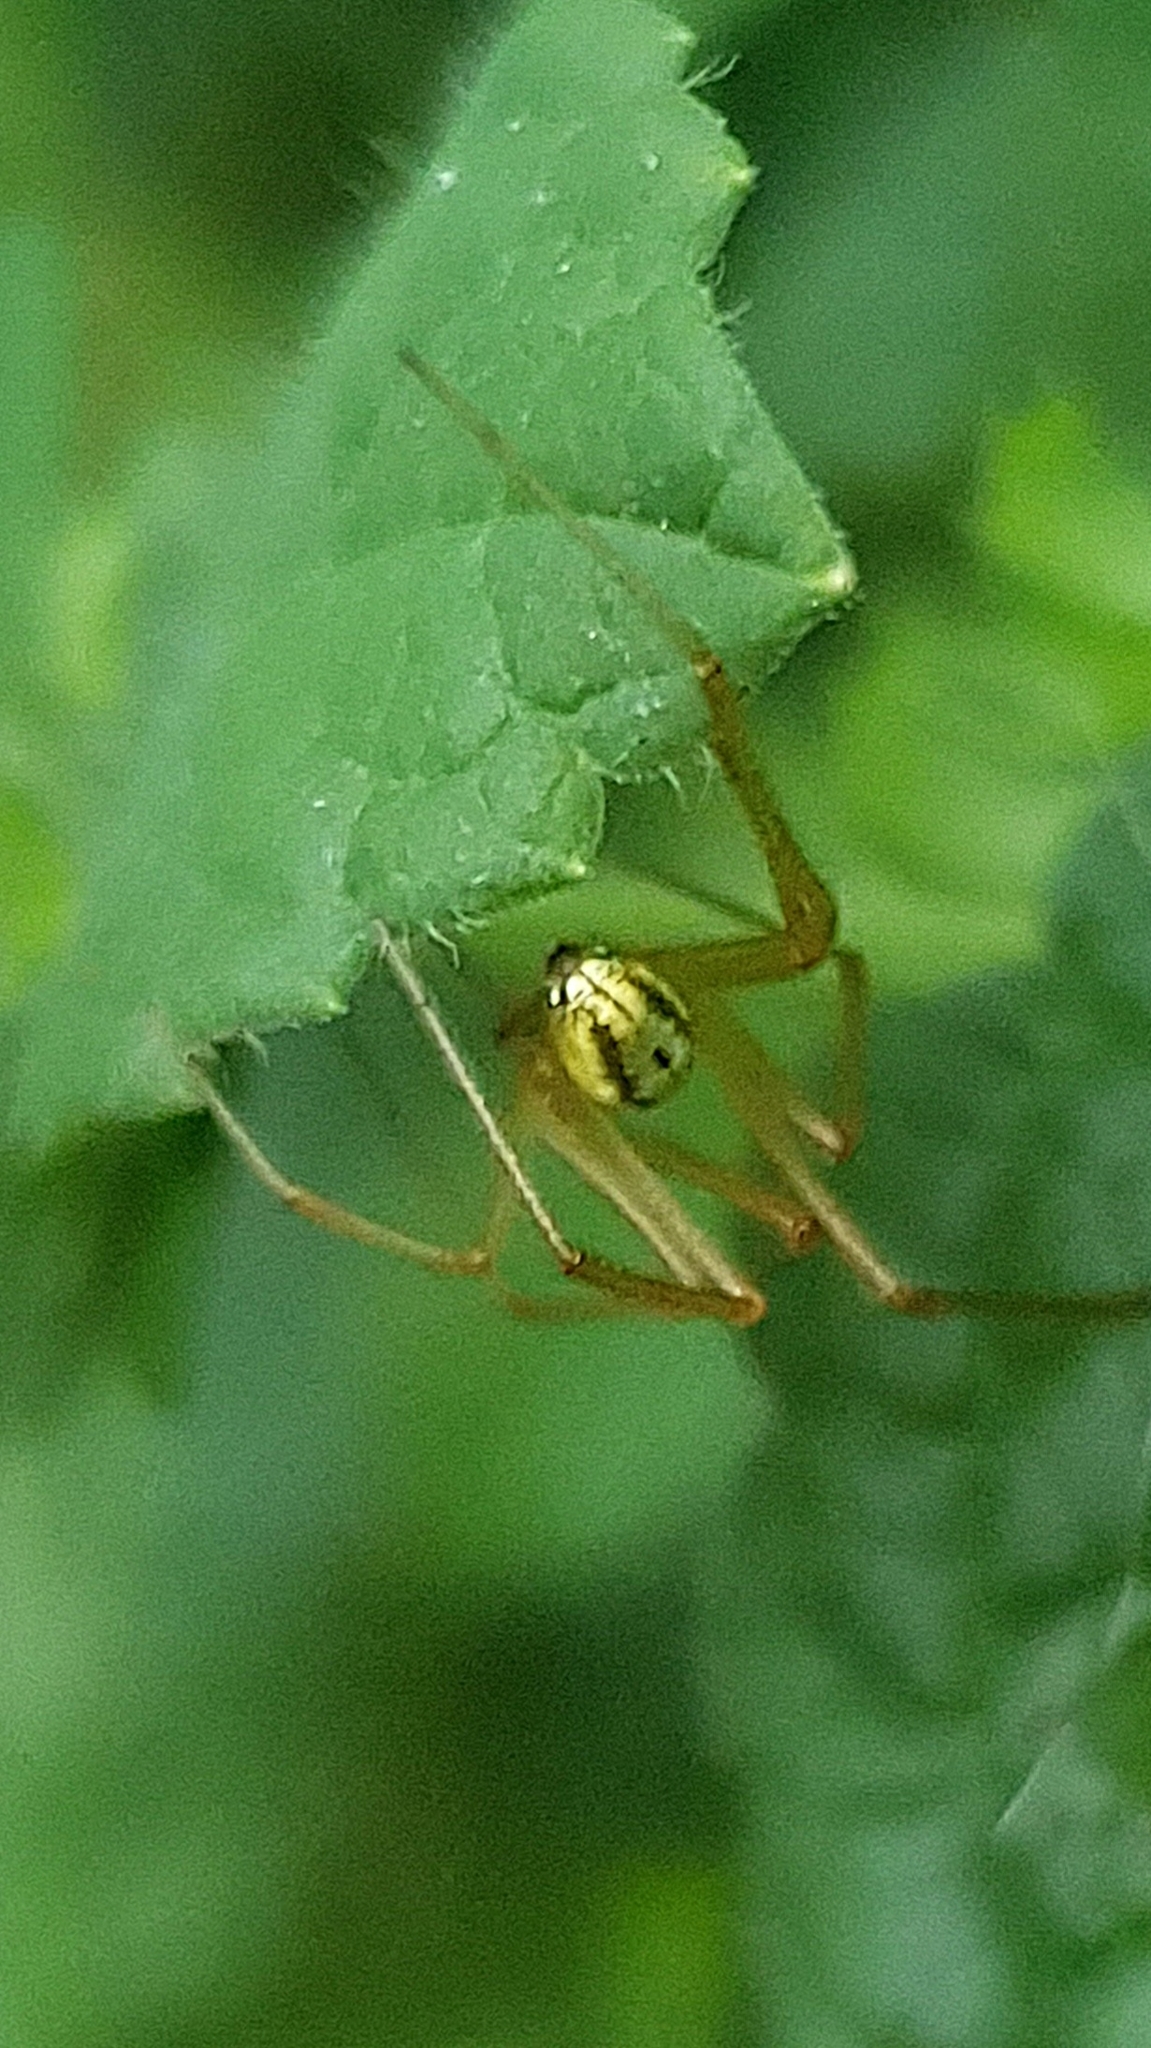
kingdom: Animalia
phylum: Arthropoda
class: Arachnida
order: Araneae
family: Theridiidae
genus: Enoplognatha
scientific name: Enoplognatha
